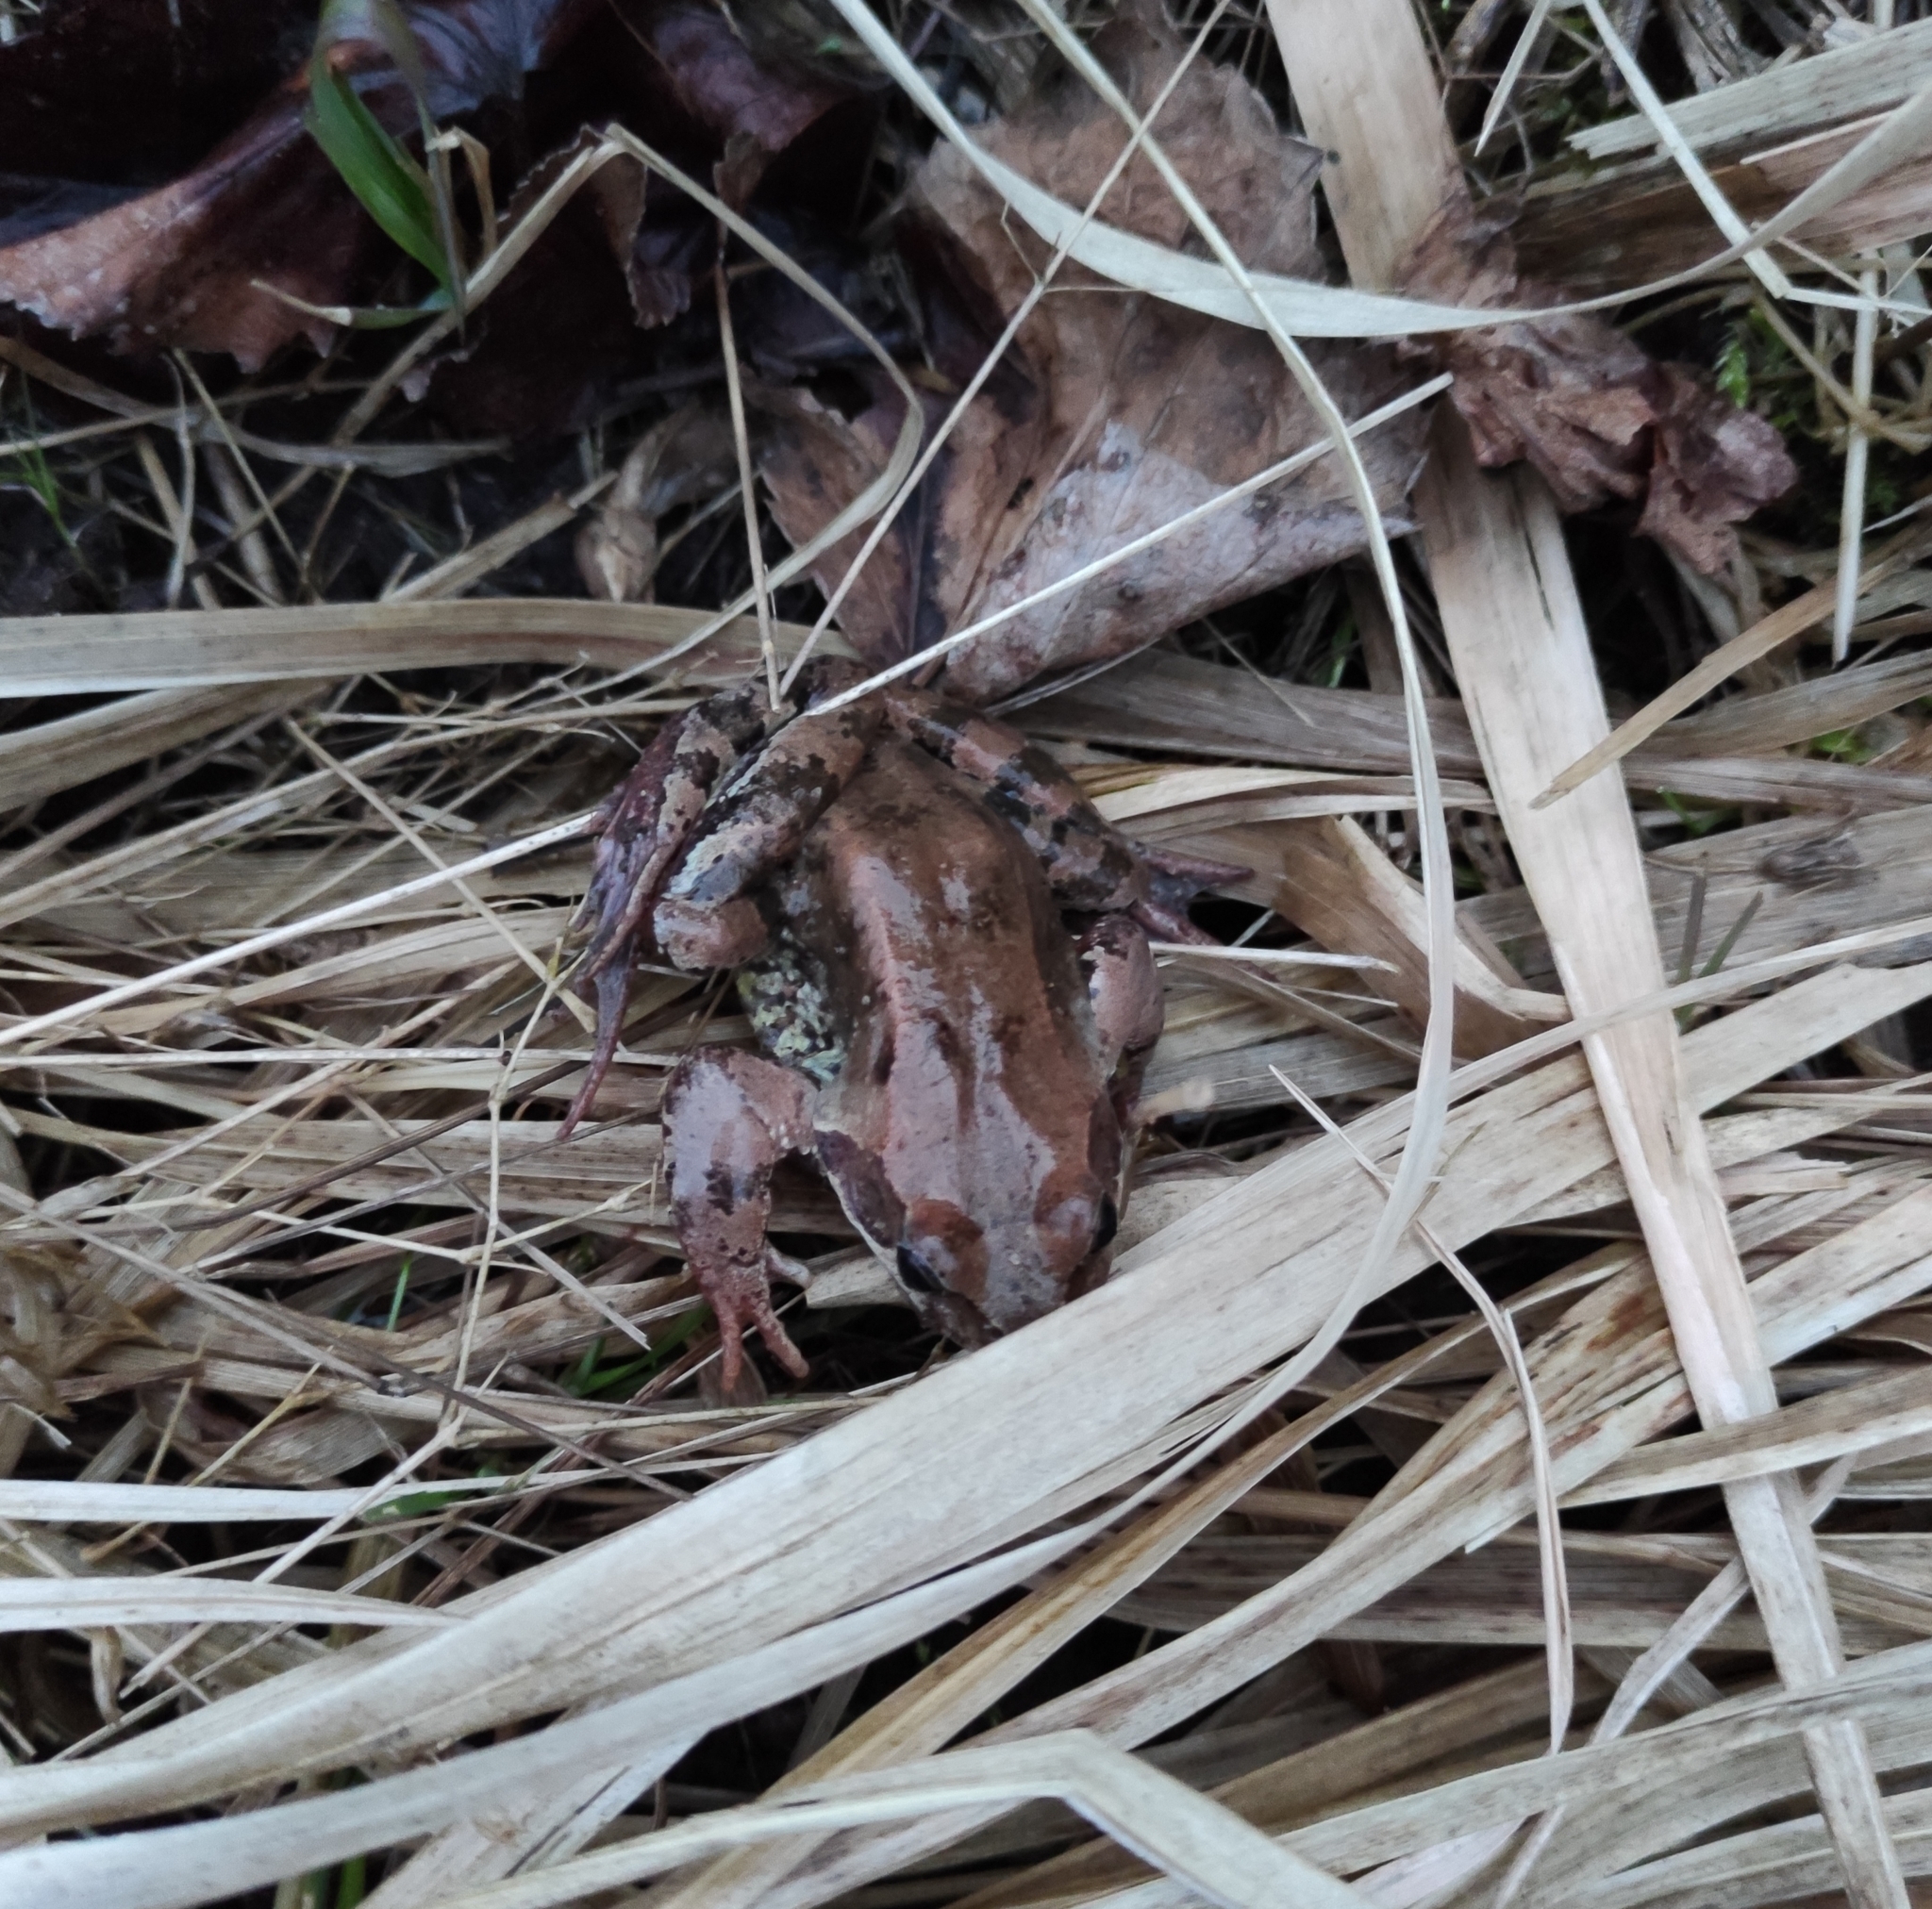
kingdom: Animalia
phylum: Chordata
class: Amphibia
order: Anura
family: Ranidae
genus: Rana
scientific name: Rana temporaria
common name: Common frog
